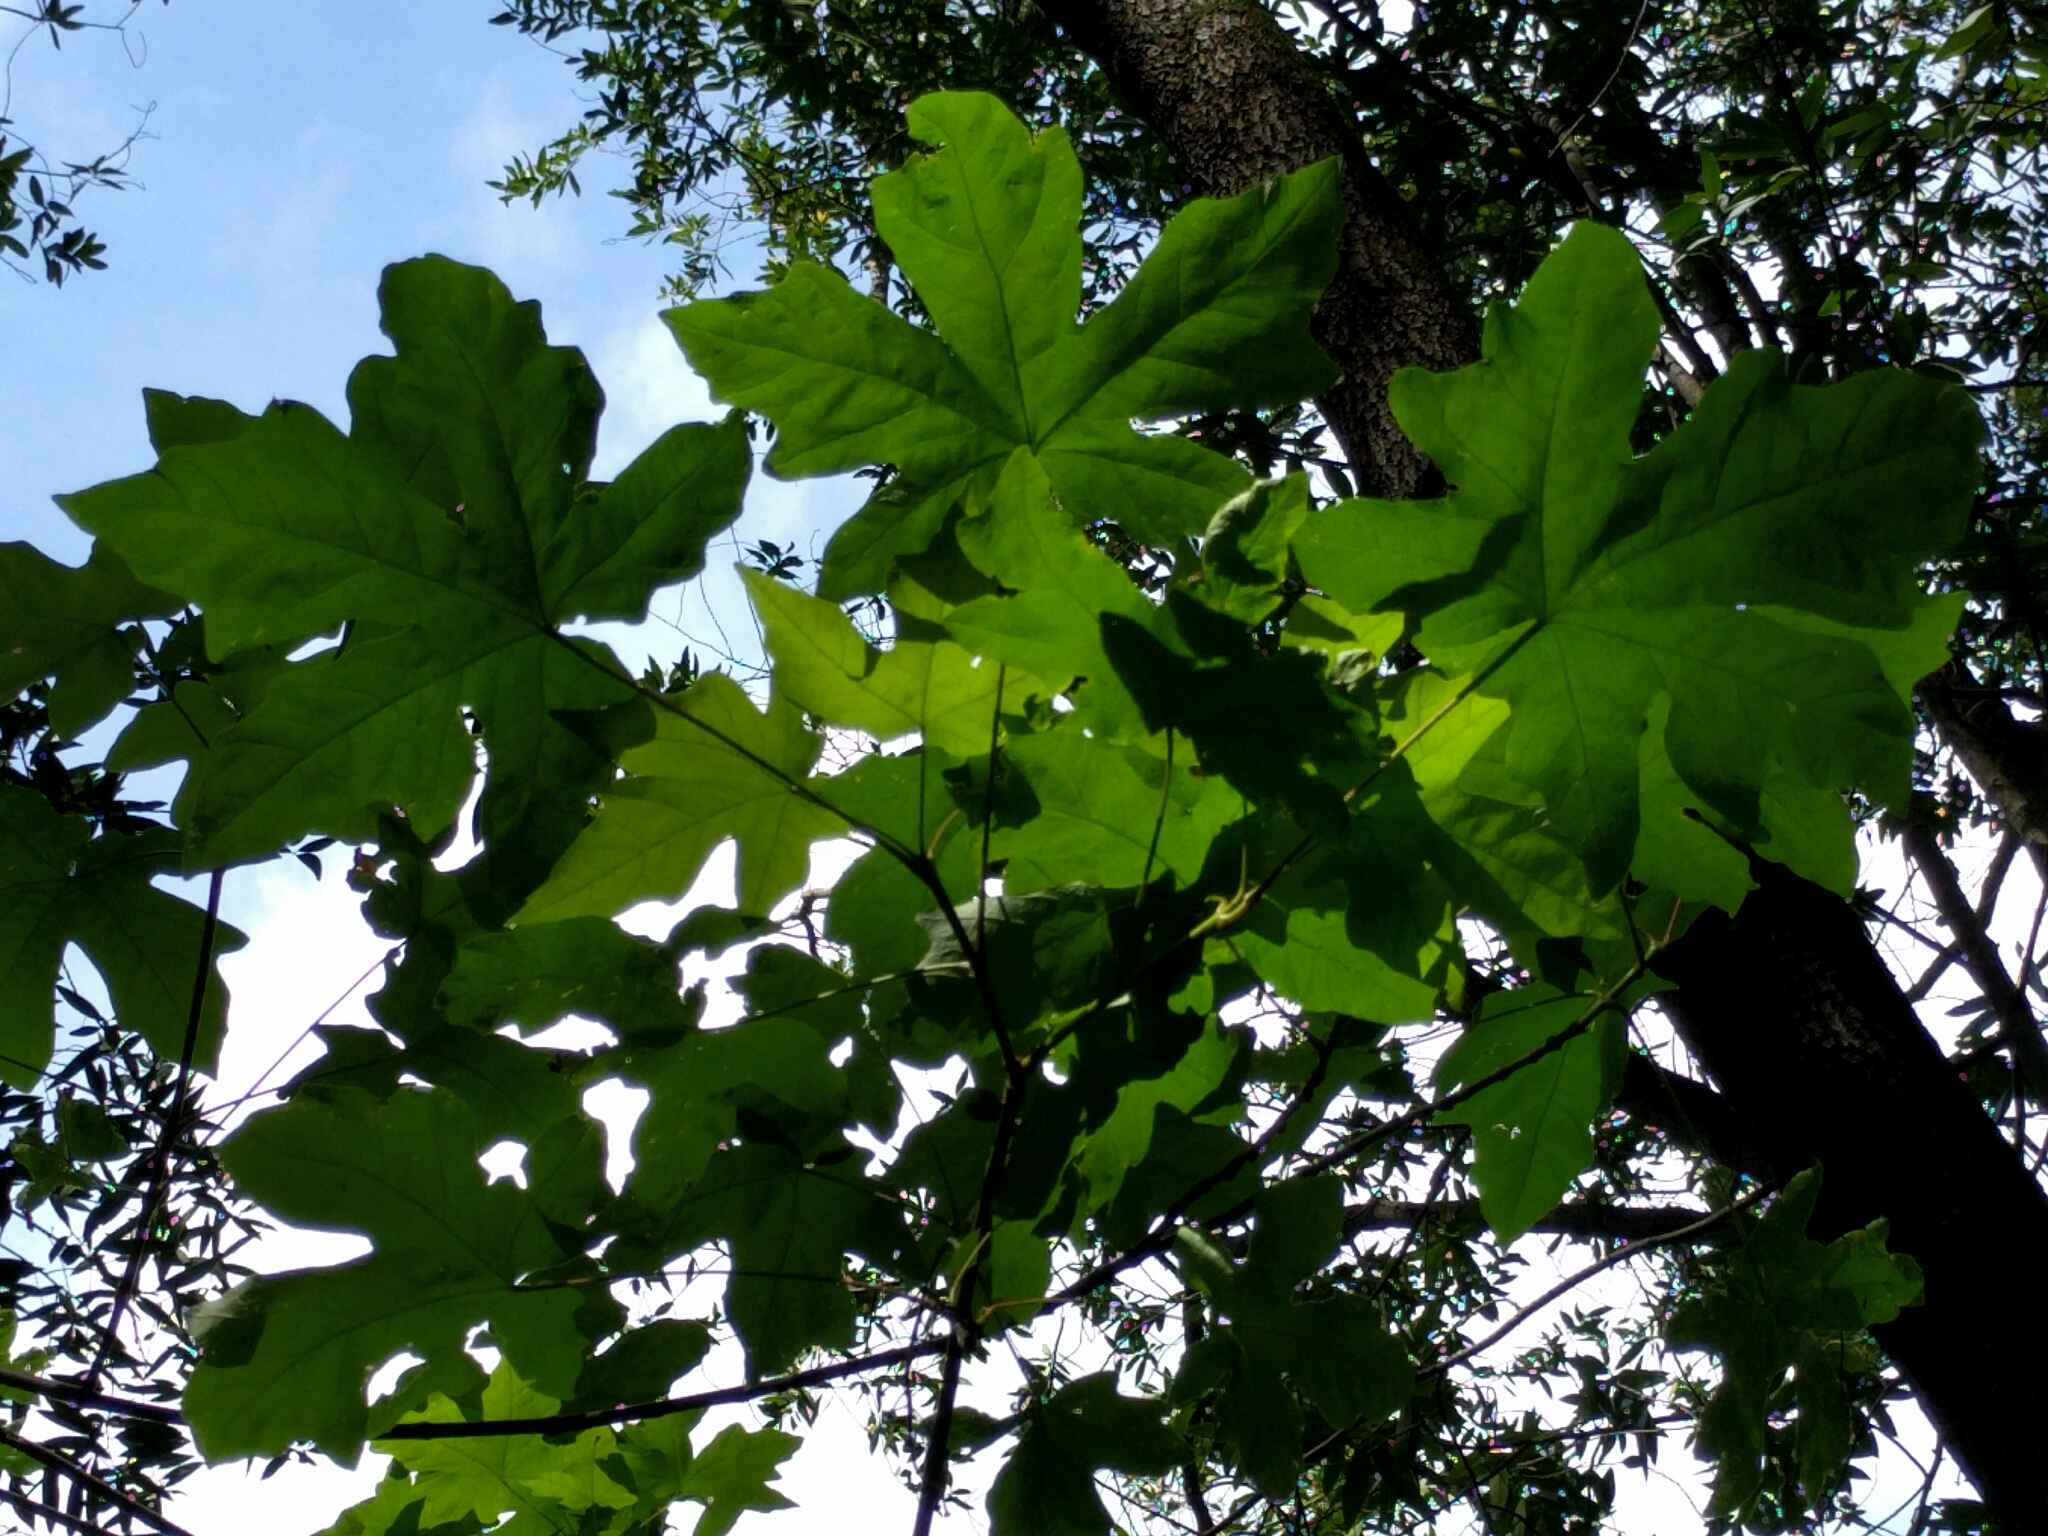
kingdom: Plantae
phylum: Tracheophyta
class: Magnoliopsida
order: Sapindales
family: Sapindaceae
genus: Acer
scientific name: Acer macrophyllum
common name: Oregon maple
